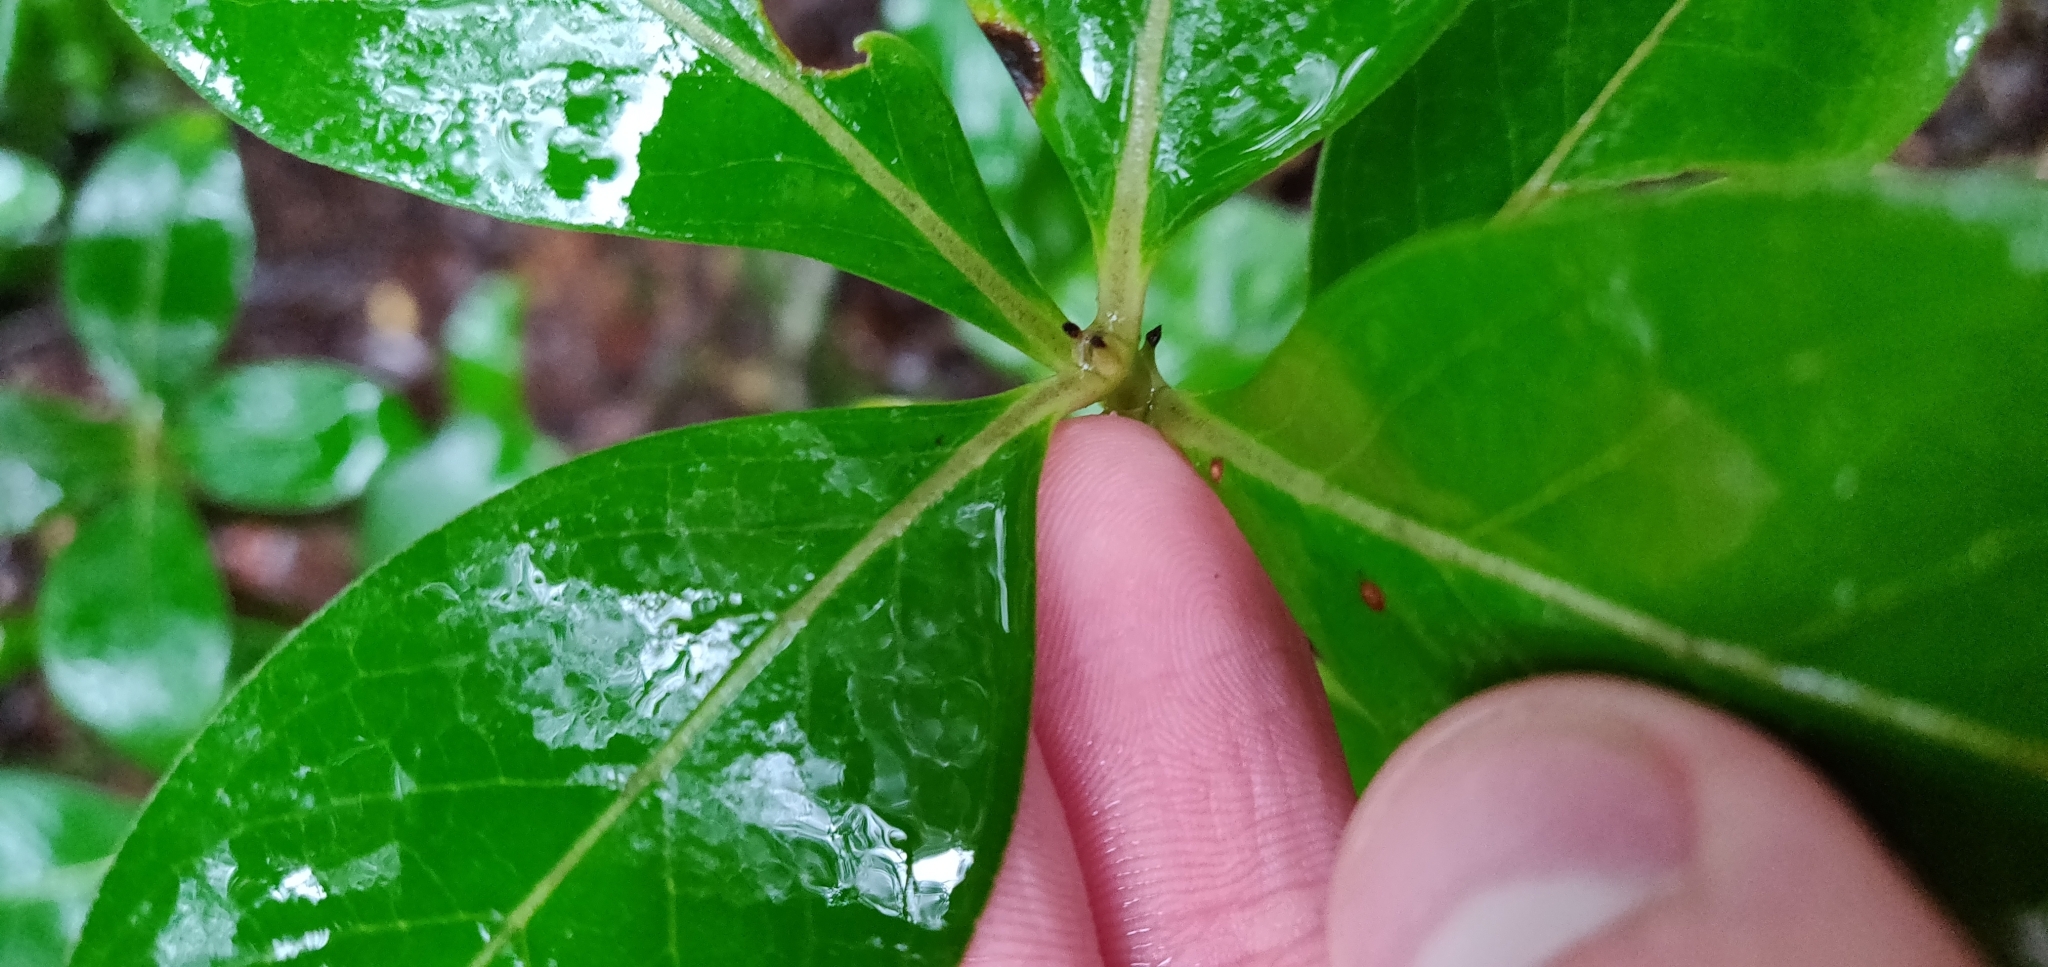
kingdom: Plantae
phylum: Tracheophyta
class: Magnoliopsida
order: Gentianales
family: Rubiaceae
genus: Coprosma
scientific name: Coprosma lucida
